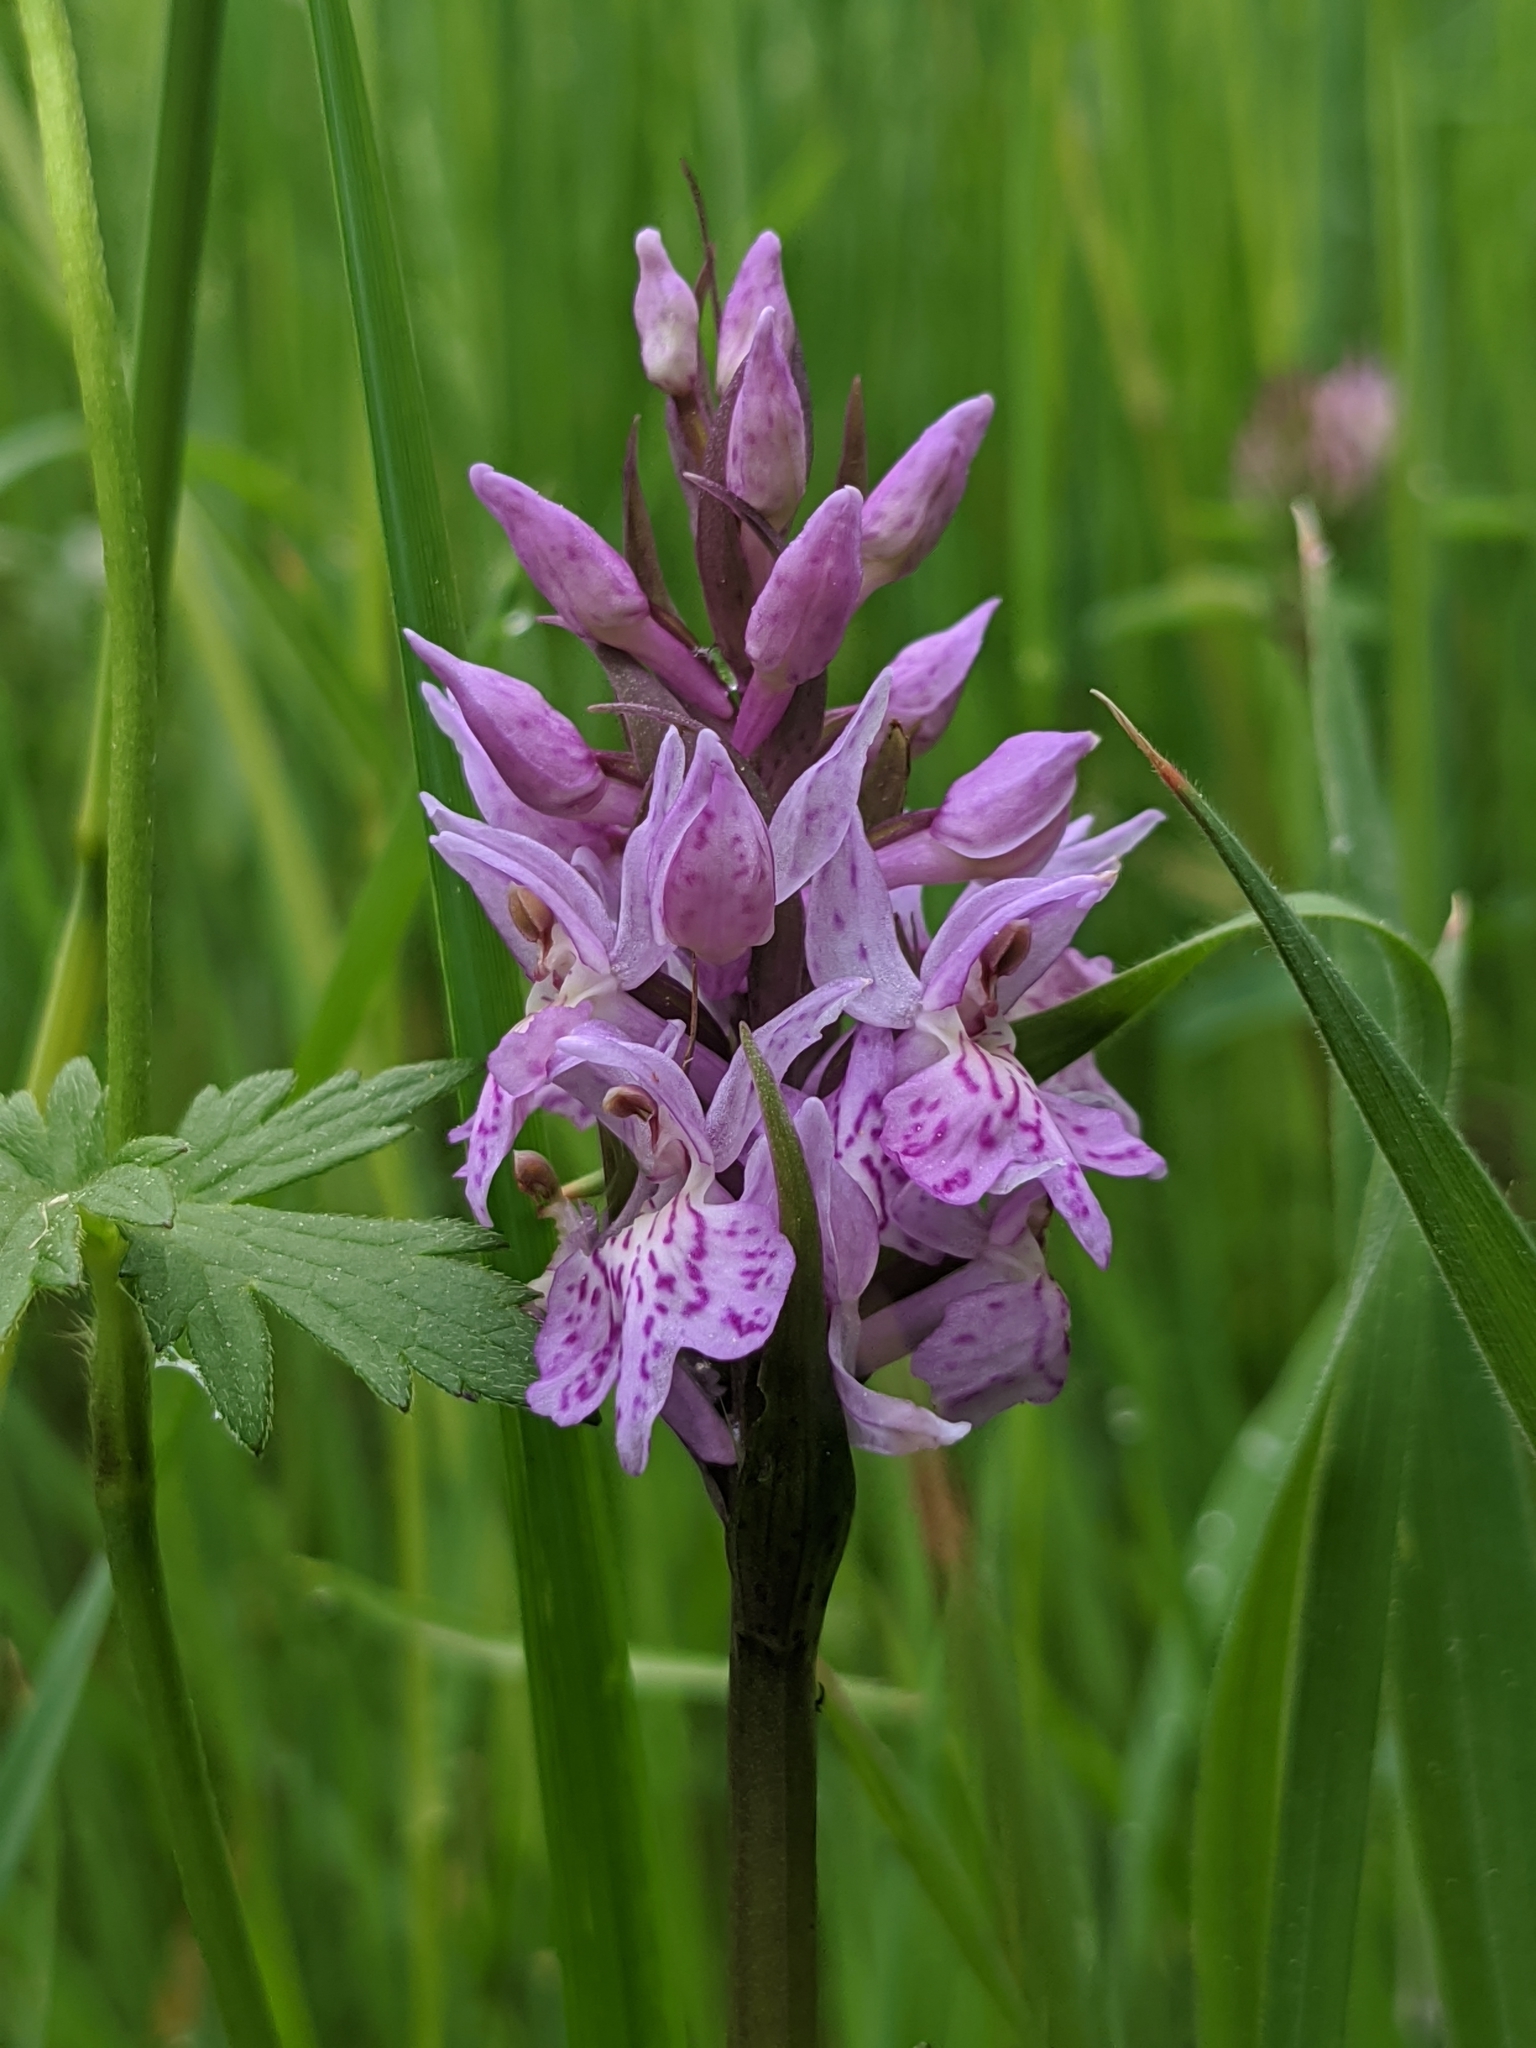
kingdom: Plantae
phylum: Tracheophyta
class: Liliopsida
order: Asparagales
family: Orchidaceae
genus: Dactylorhiza
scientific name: Dactylorhiza maculata
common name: Heath spotted-orchid
